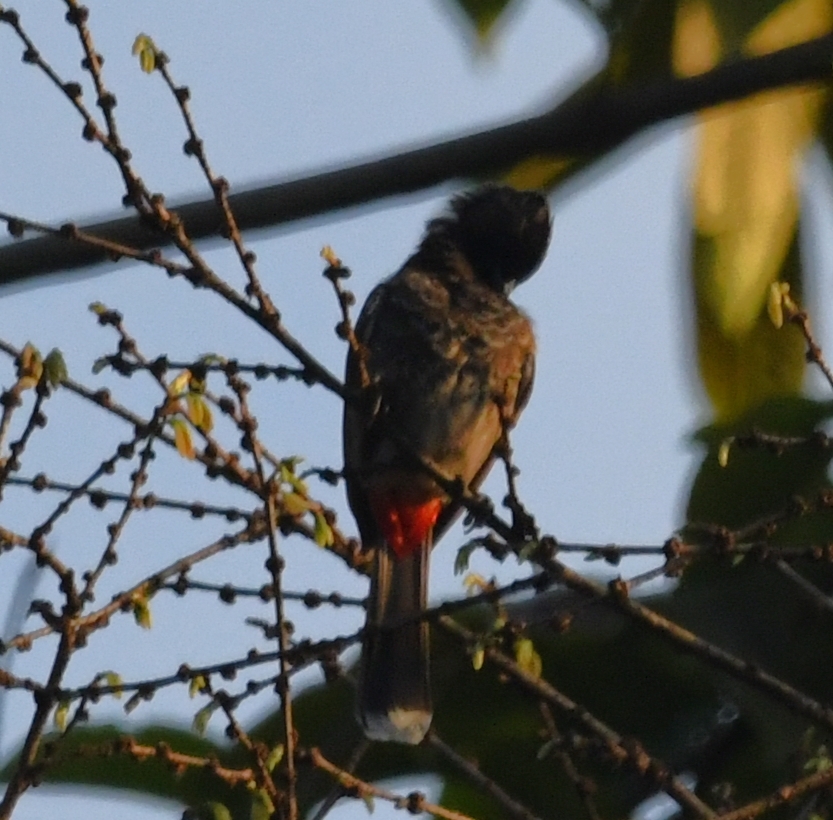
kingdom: Animalia
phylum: Chordata
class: Aves
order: Passeriformes
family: Pycnonotidae
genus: Pycnonotus
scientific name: Pycnonotus cafer
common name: Red-vented bulbul
